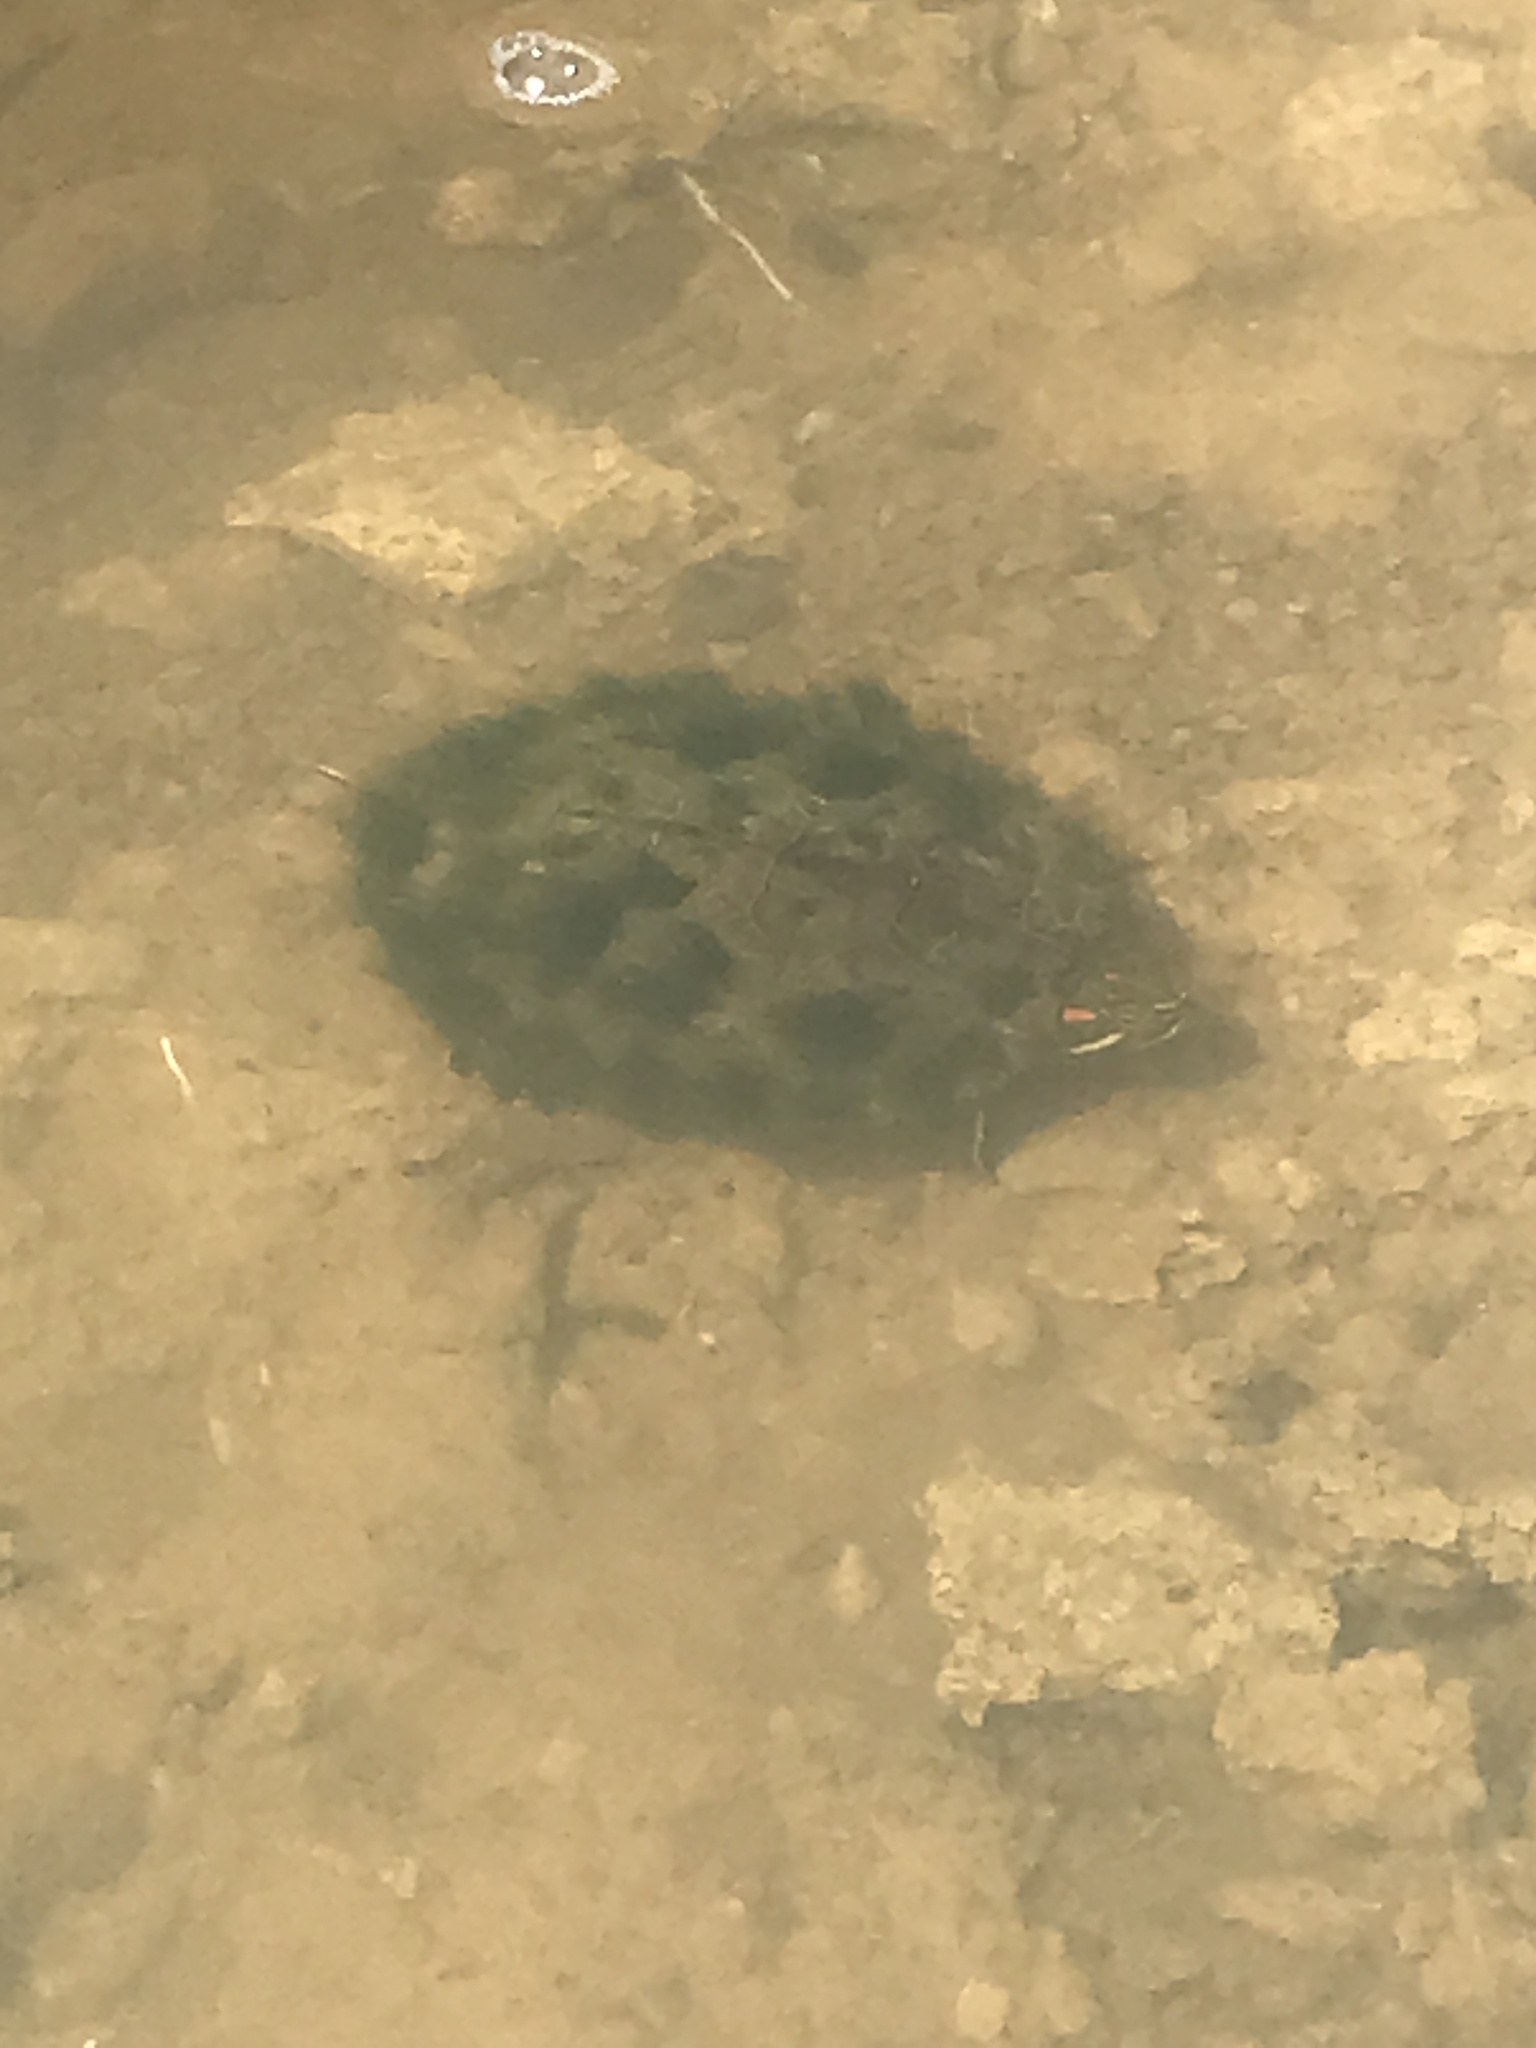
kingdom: Animalia
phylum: Chordata
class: Testudines
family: Emydidae
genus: Trachemys
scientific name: Trachemys scripta
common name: Slider
